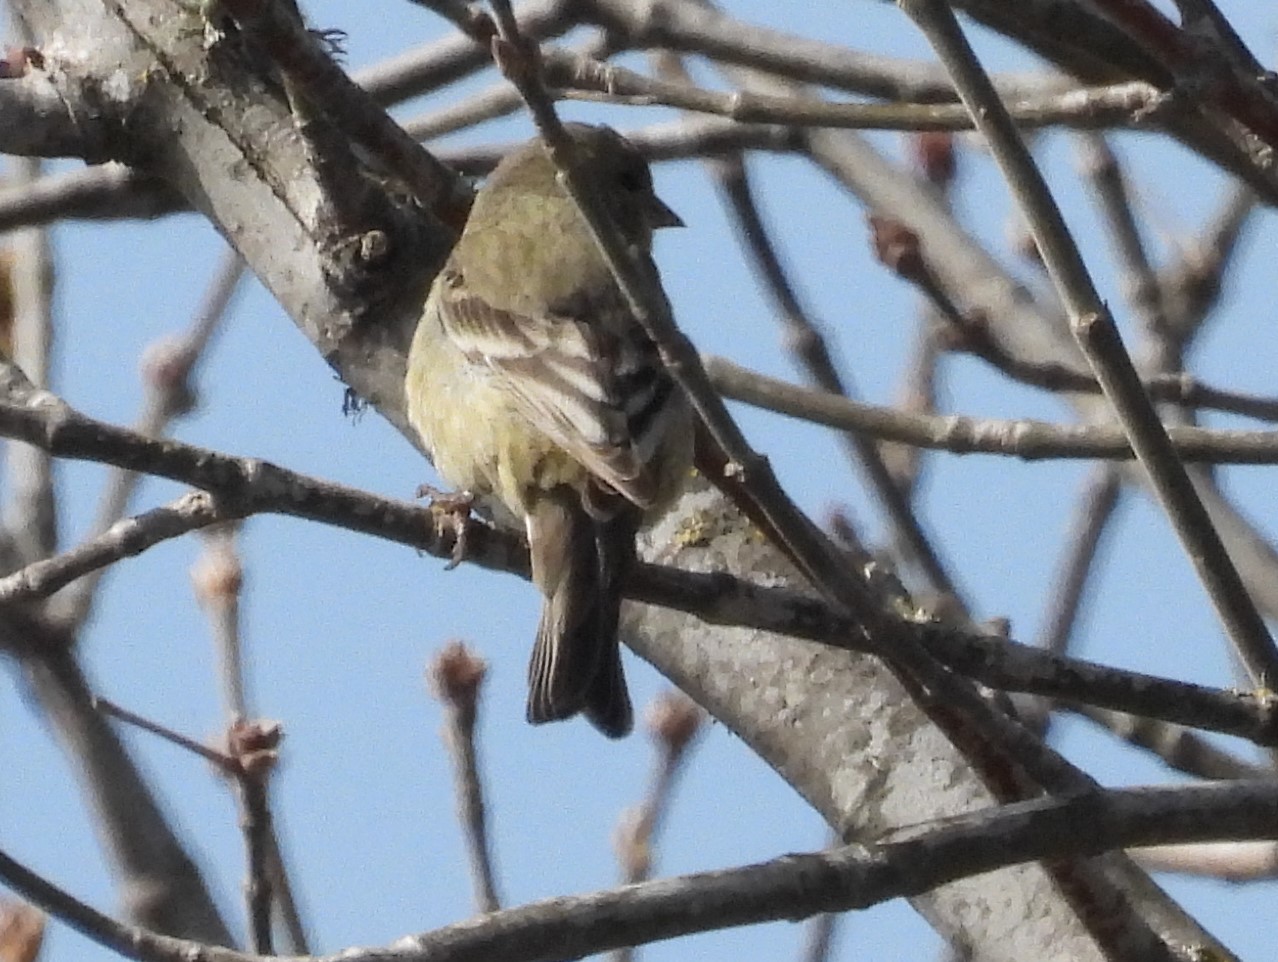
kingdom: Animalia
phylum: Chordata
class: Aves
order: Passeriformes
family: Fringillidae
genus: Spinus
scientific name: Spinus psaltria
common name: Lesser goldfinch
